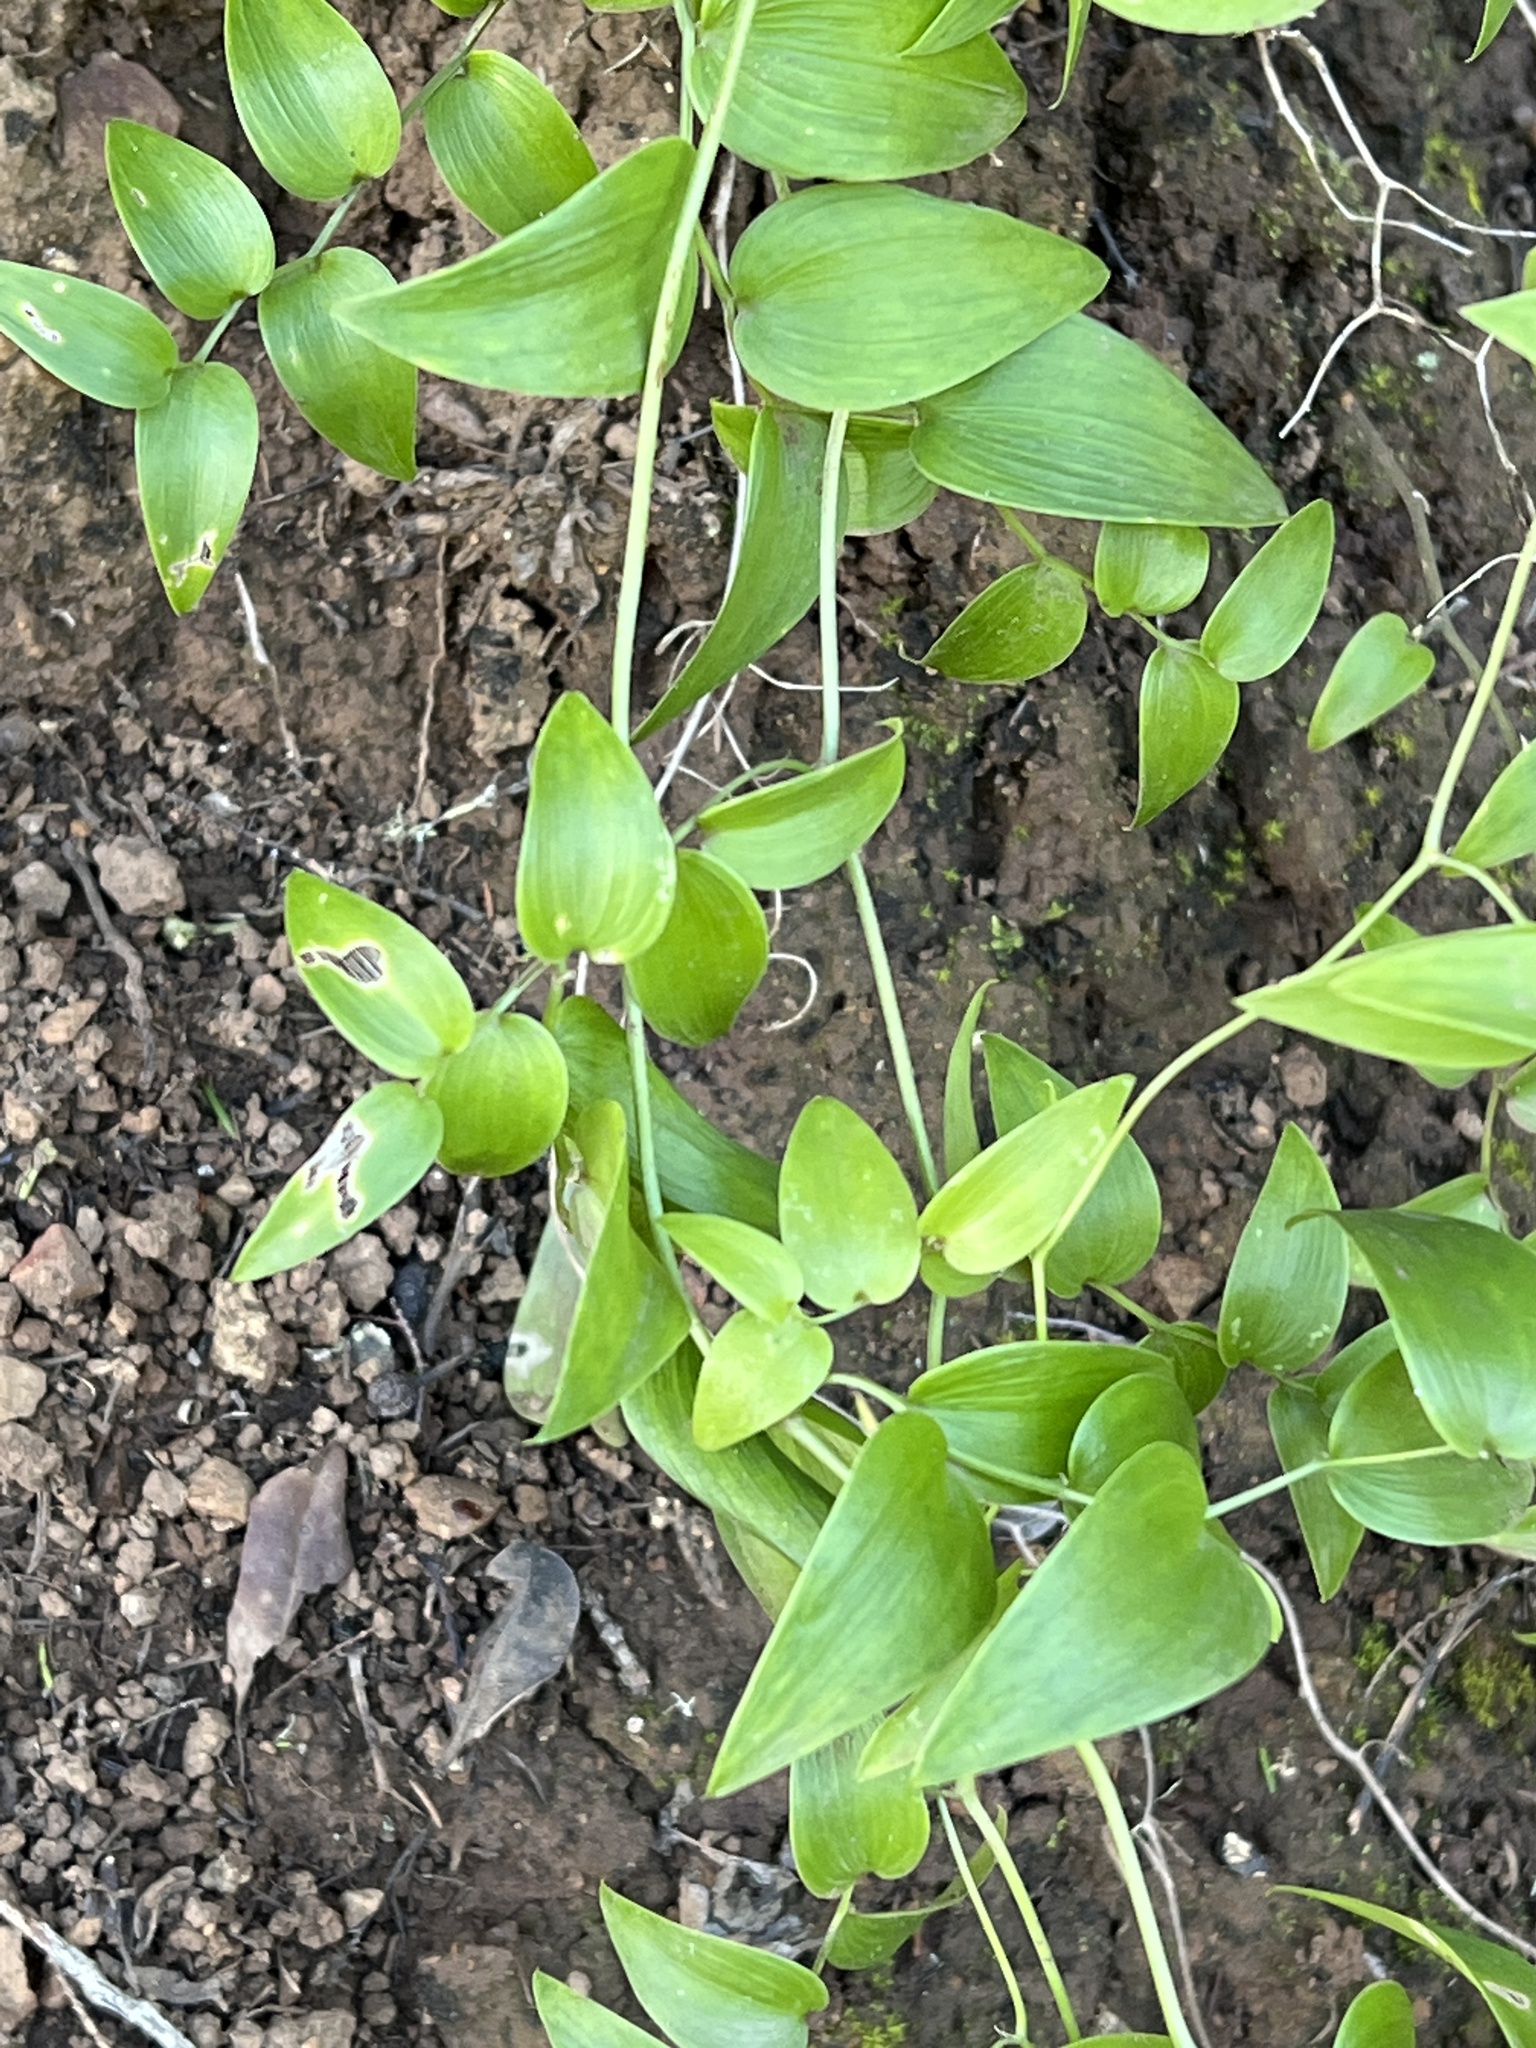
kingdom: Plantae
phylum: Tracheophyta
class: Liliopsida
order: Asparagales
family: Asparagaceae
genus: Asparagus
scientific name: Asparagus asparagoides
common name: African asparagus fern
